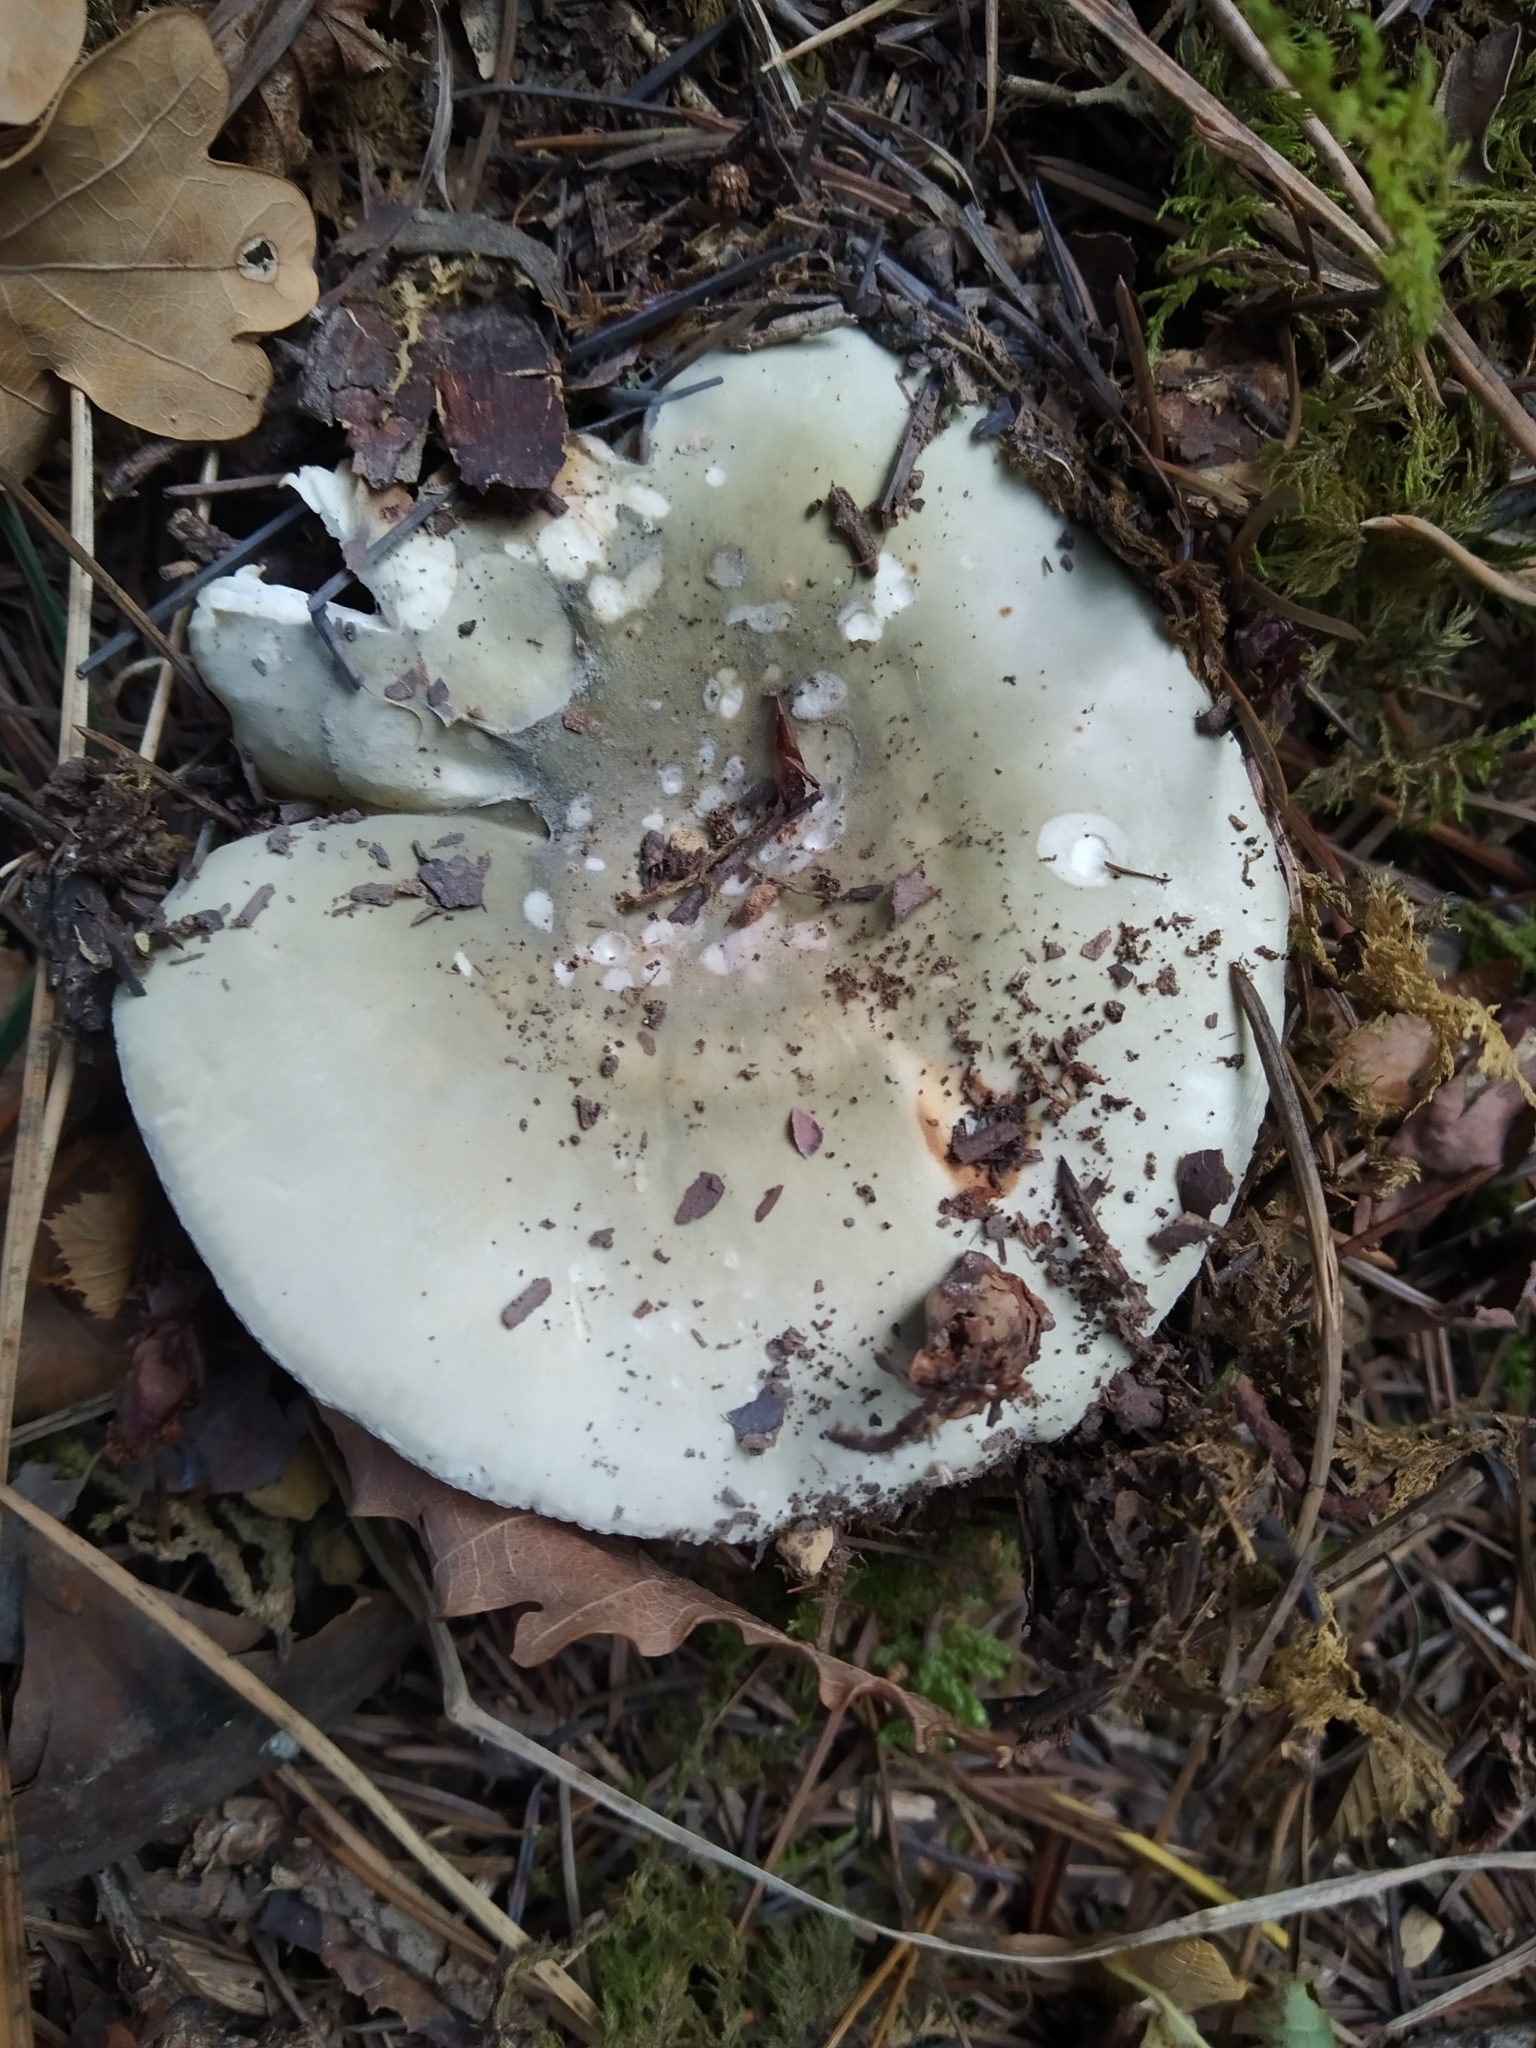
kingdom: Fungi
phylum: Basidiomycota
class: Agaricomycetes
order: Russulales
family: Russulaceae
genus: Russula
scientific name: Russula cyanoxantha
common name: Charcoal burner
